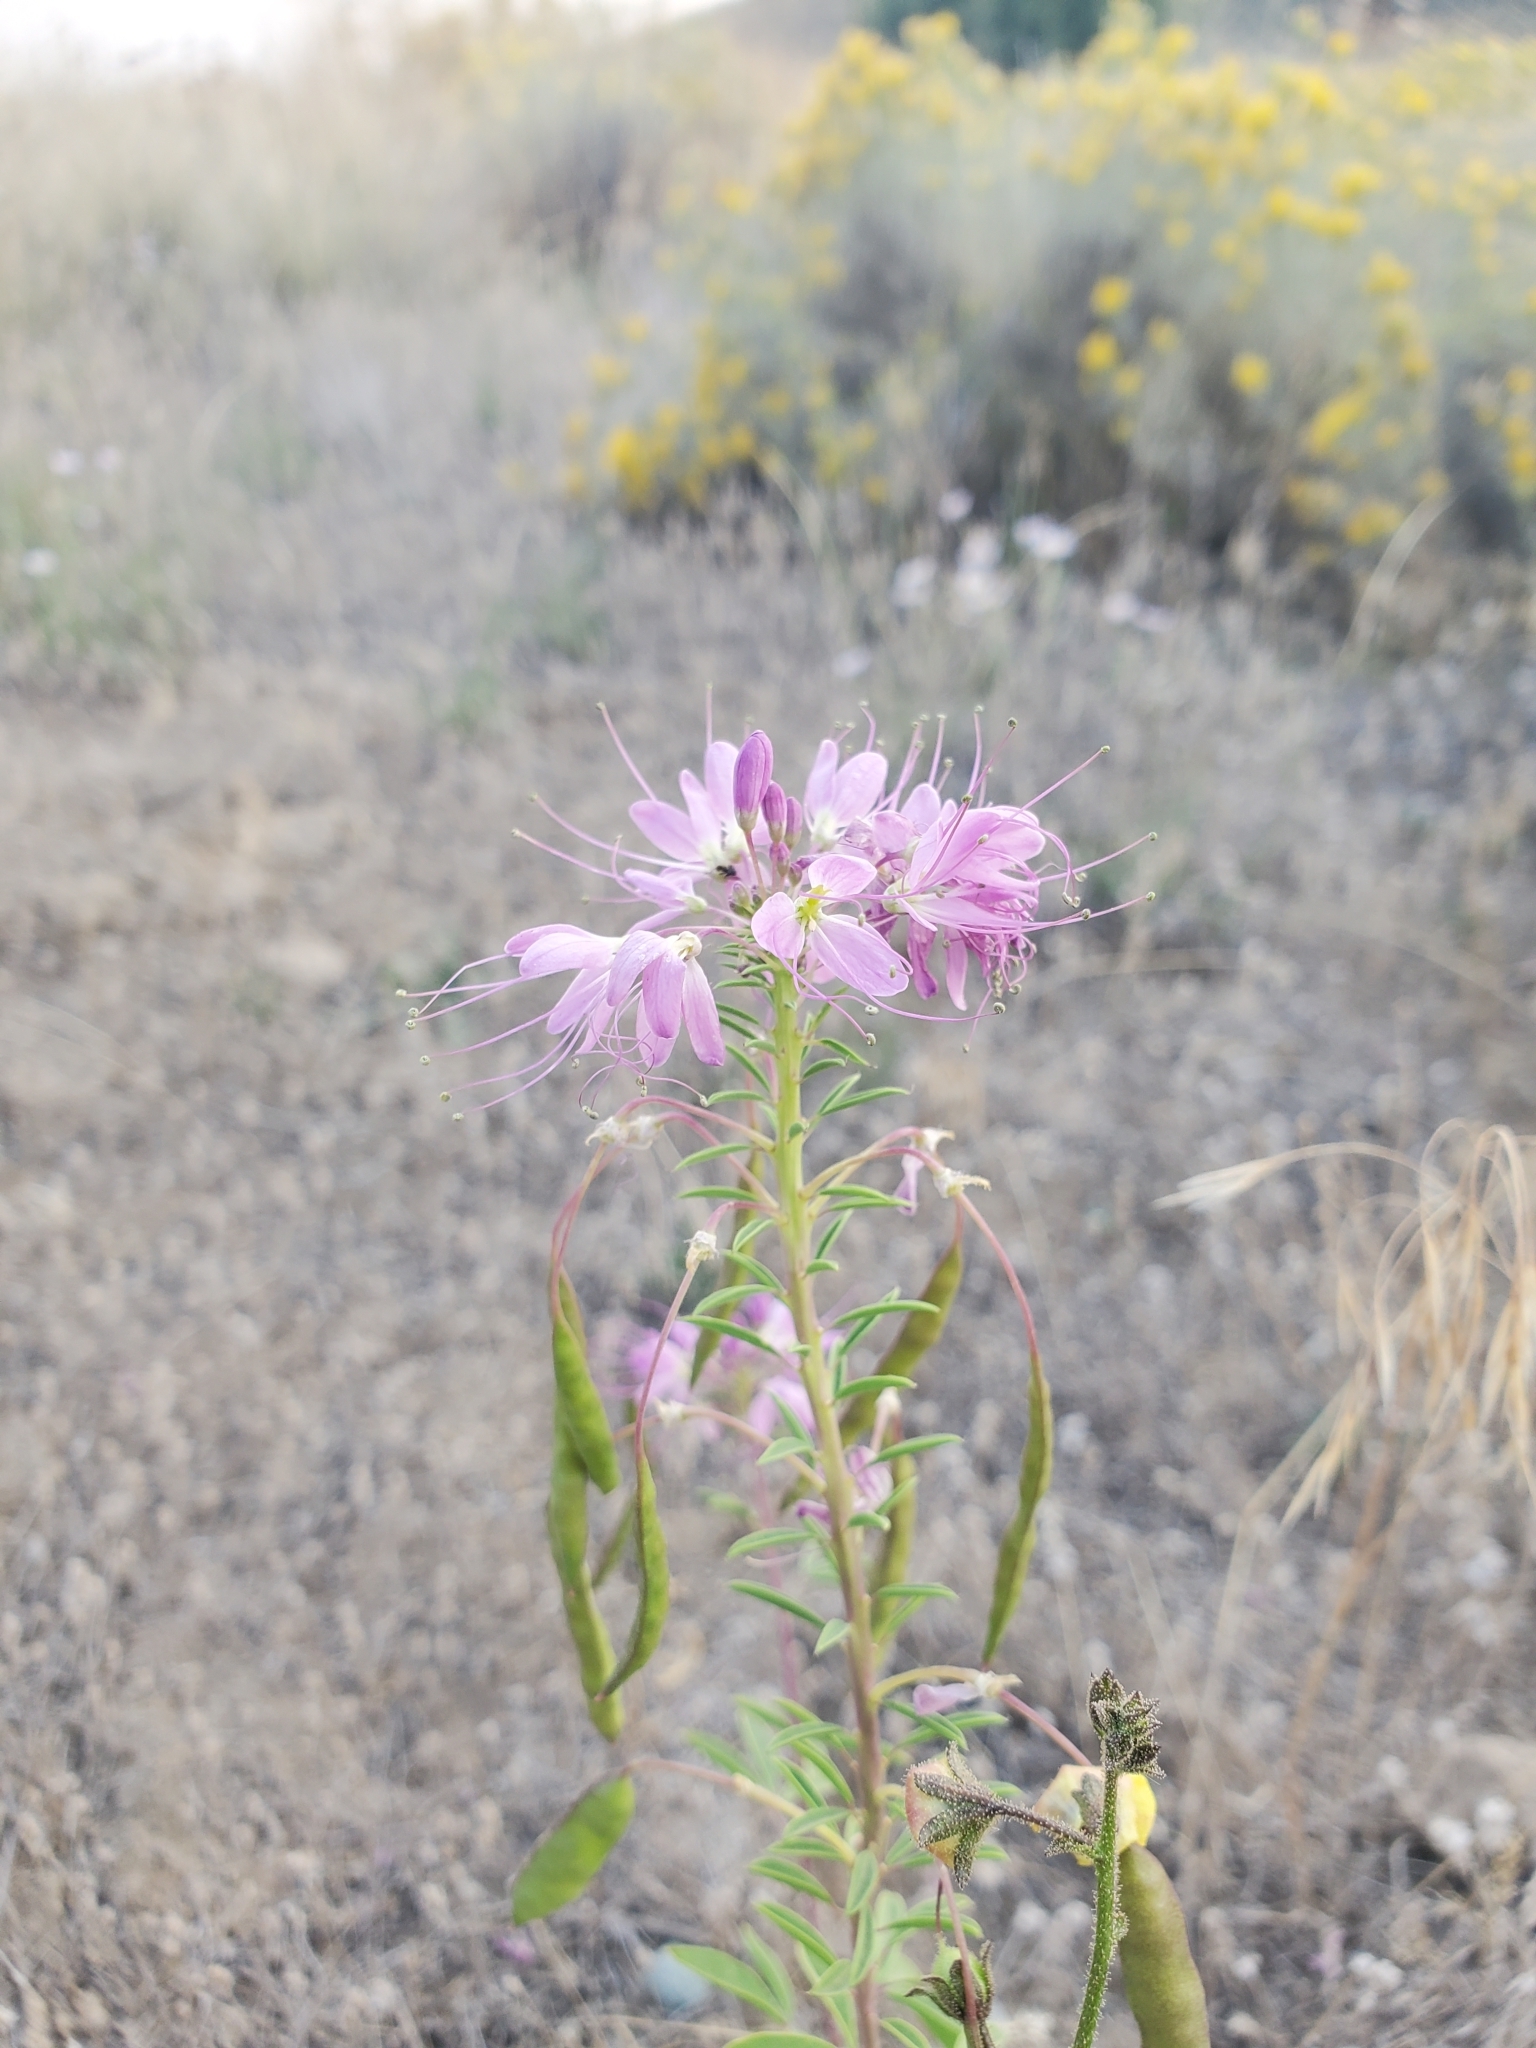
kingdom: Plantae
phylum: Tracheophyta
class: Magnoliopsida
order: Brassicales
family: Cleomaceae
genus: Cleomella
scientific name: Cleomella serrulata
